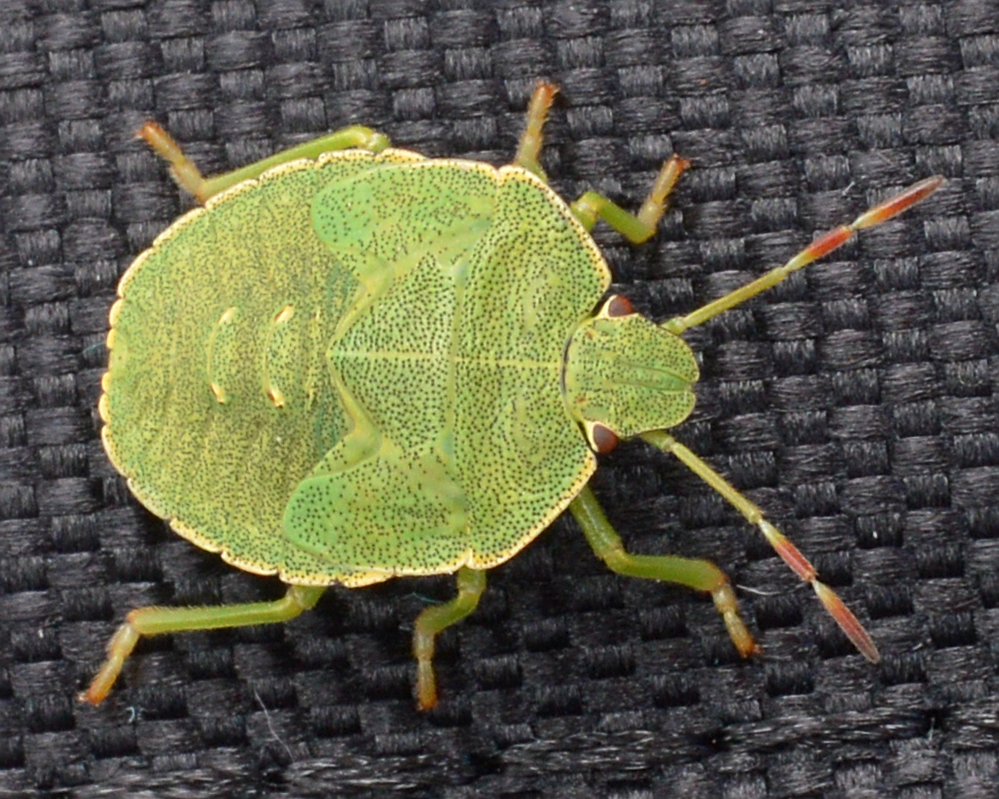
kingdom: Animalia
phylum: Arthropoda
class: Insecta
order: Hemiptera
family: Pentatomidae
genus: Palomena
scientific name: Palomena prasina
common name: Green shieldbug
